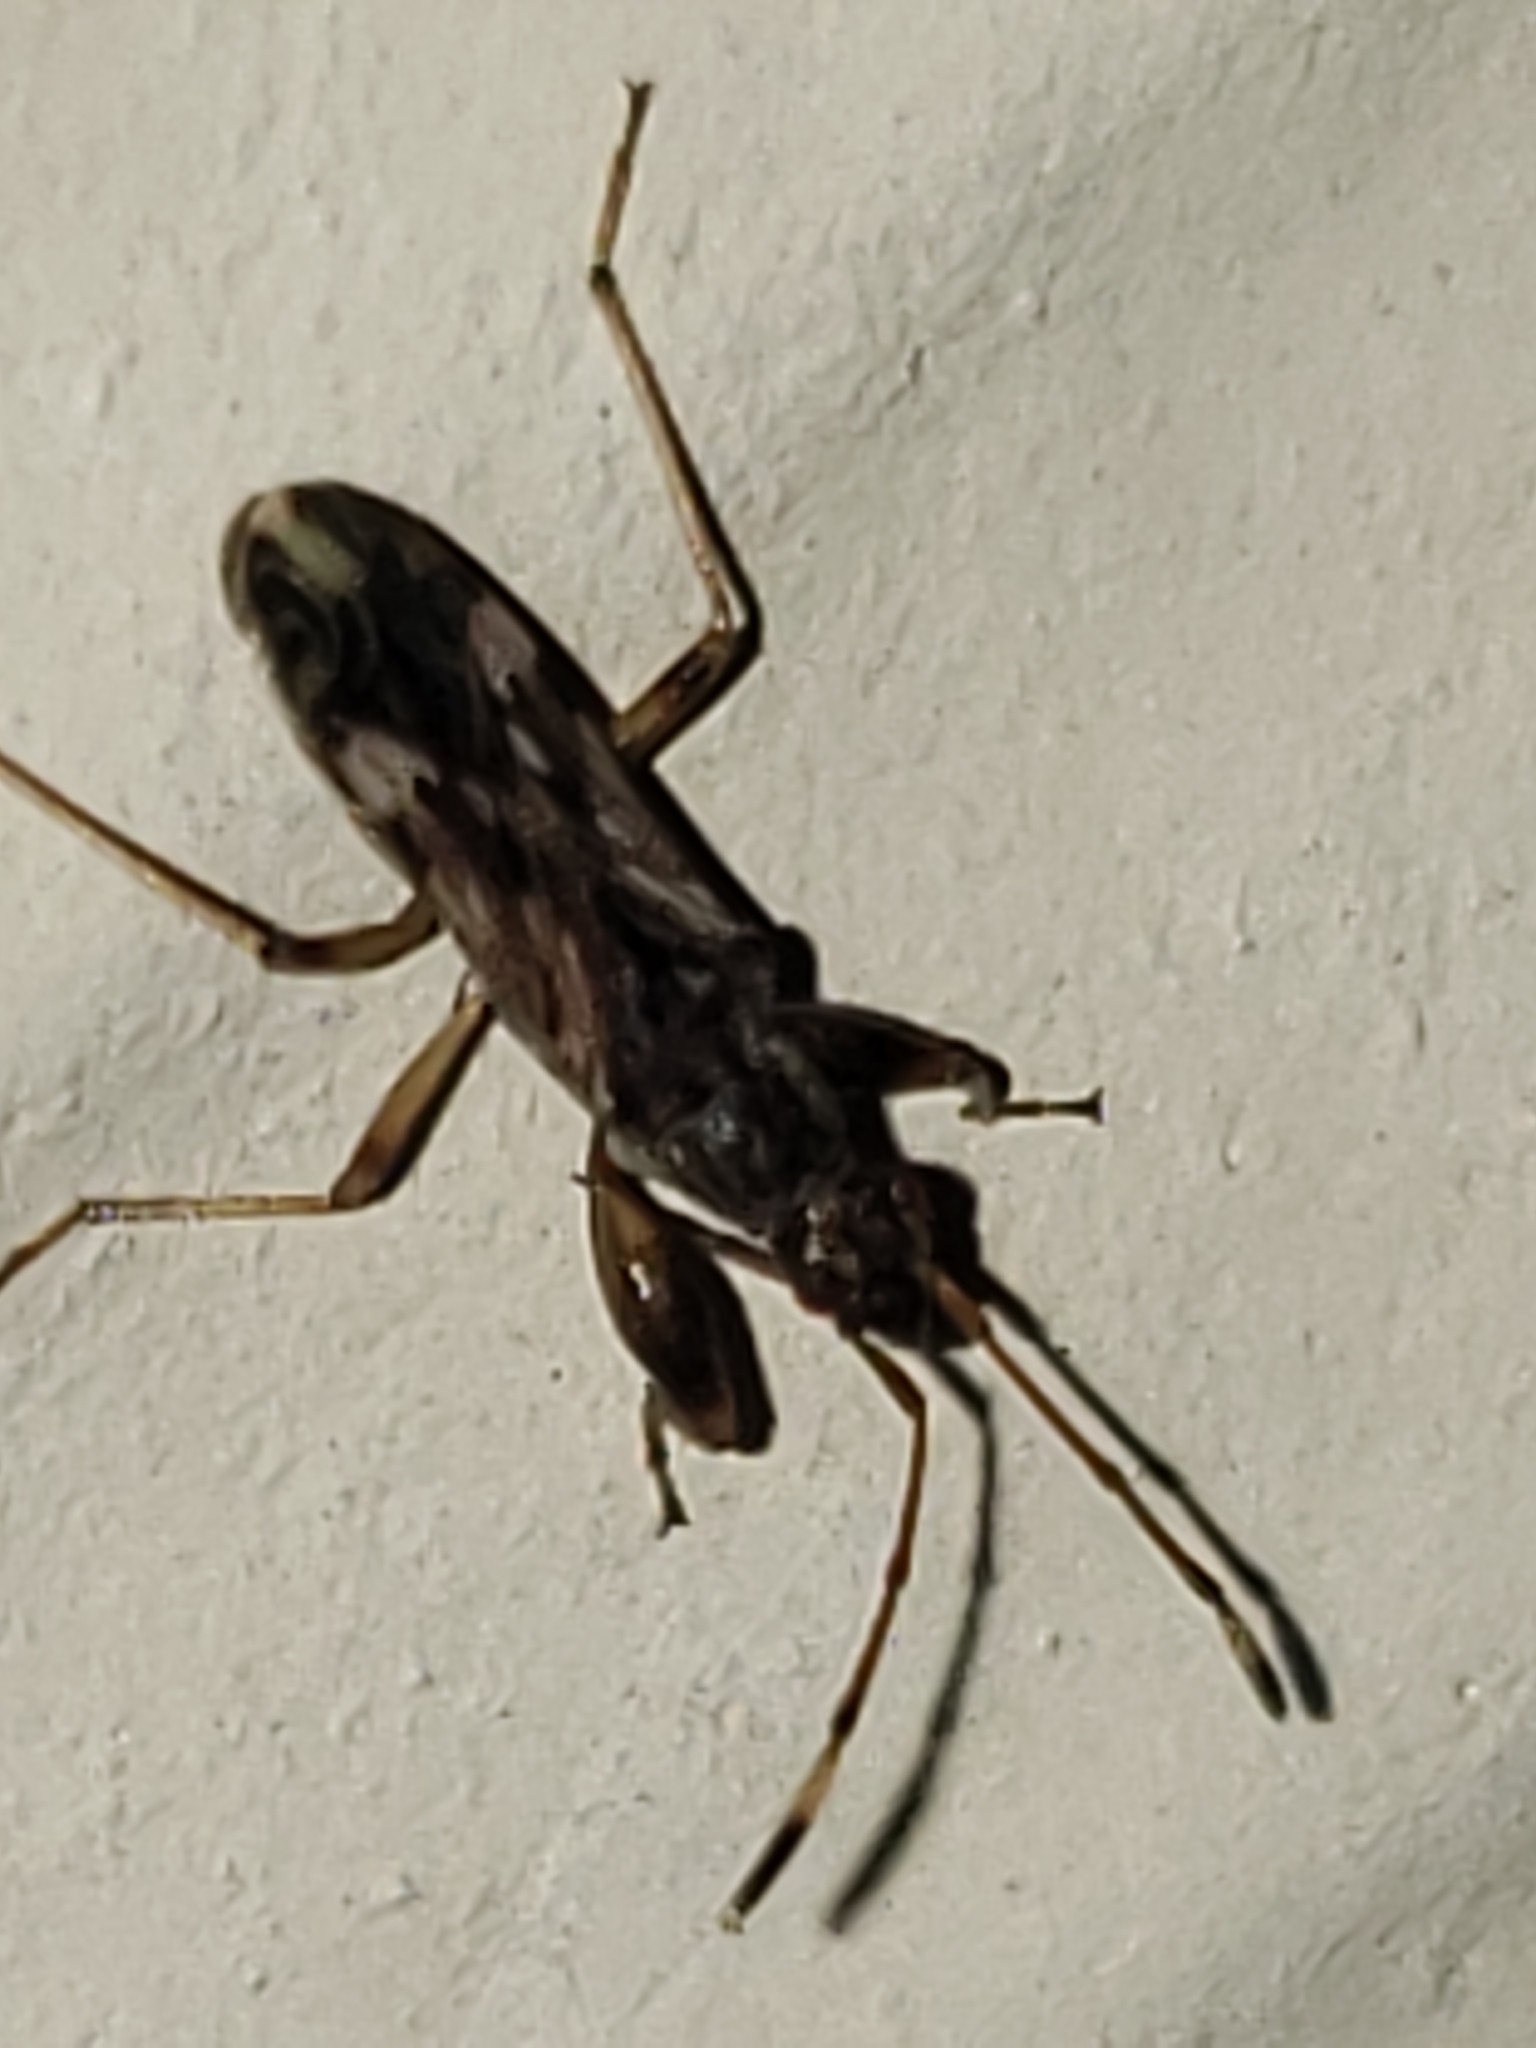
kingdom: Animalia
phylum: Arthropoda
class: Insecta
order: Hemiptera
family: Rhyparochromidae
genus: Neopamera
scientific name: Neopamera albocincta
